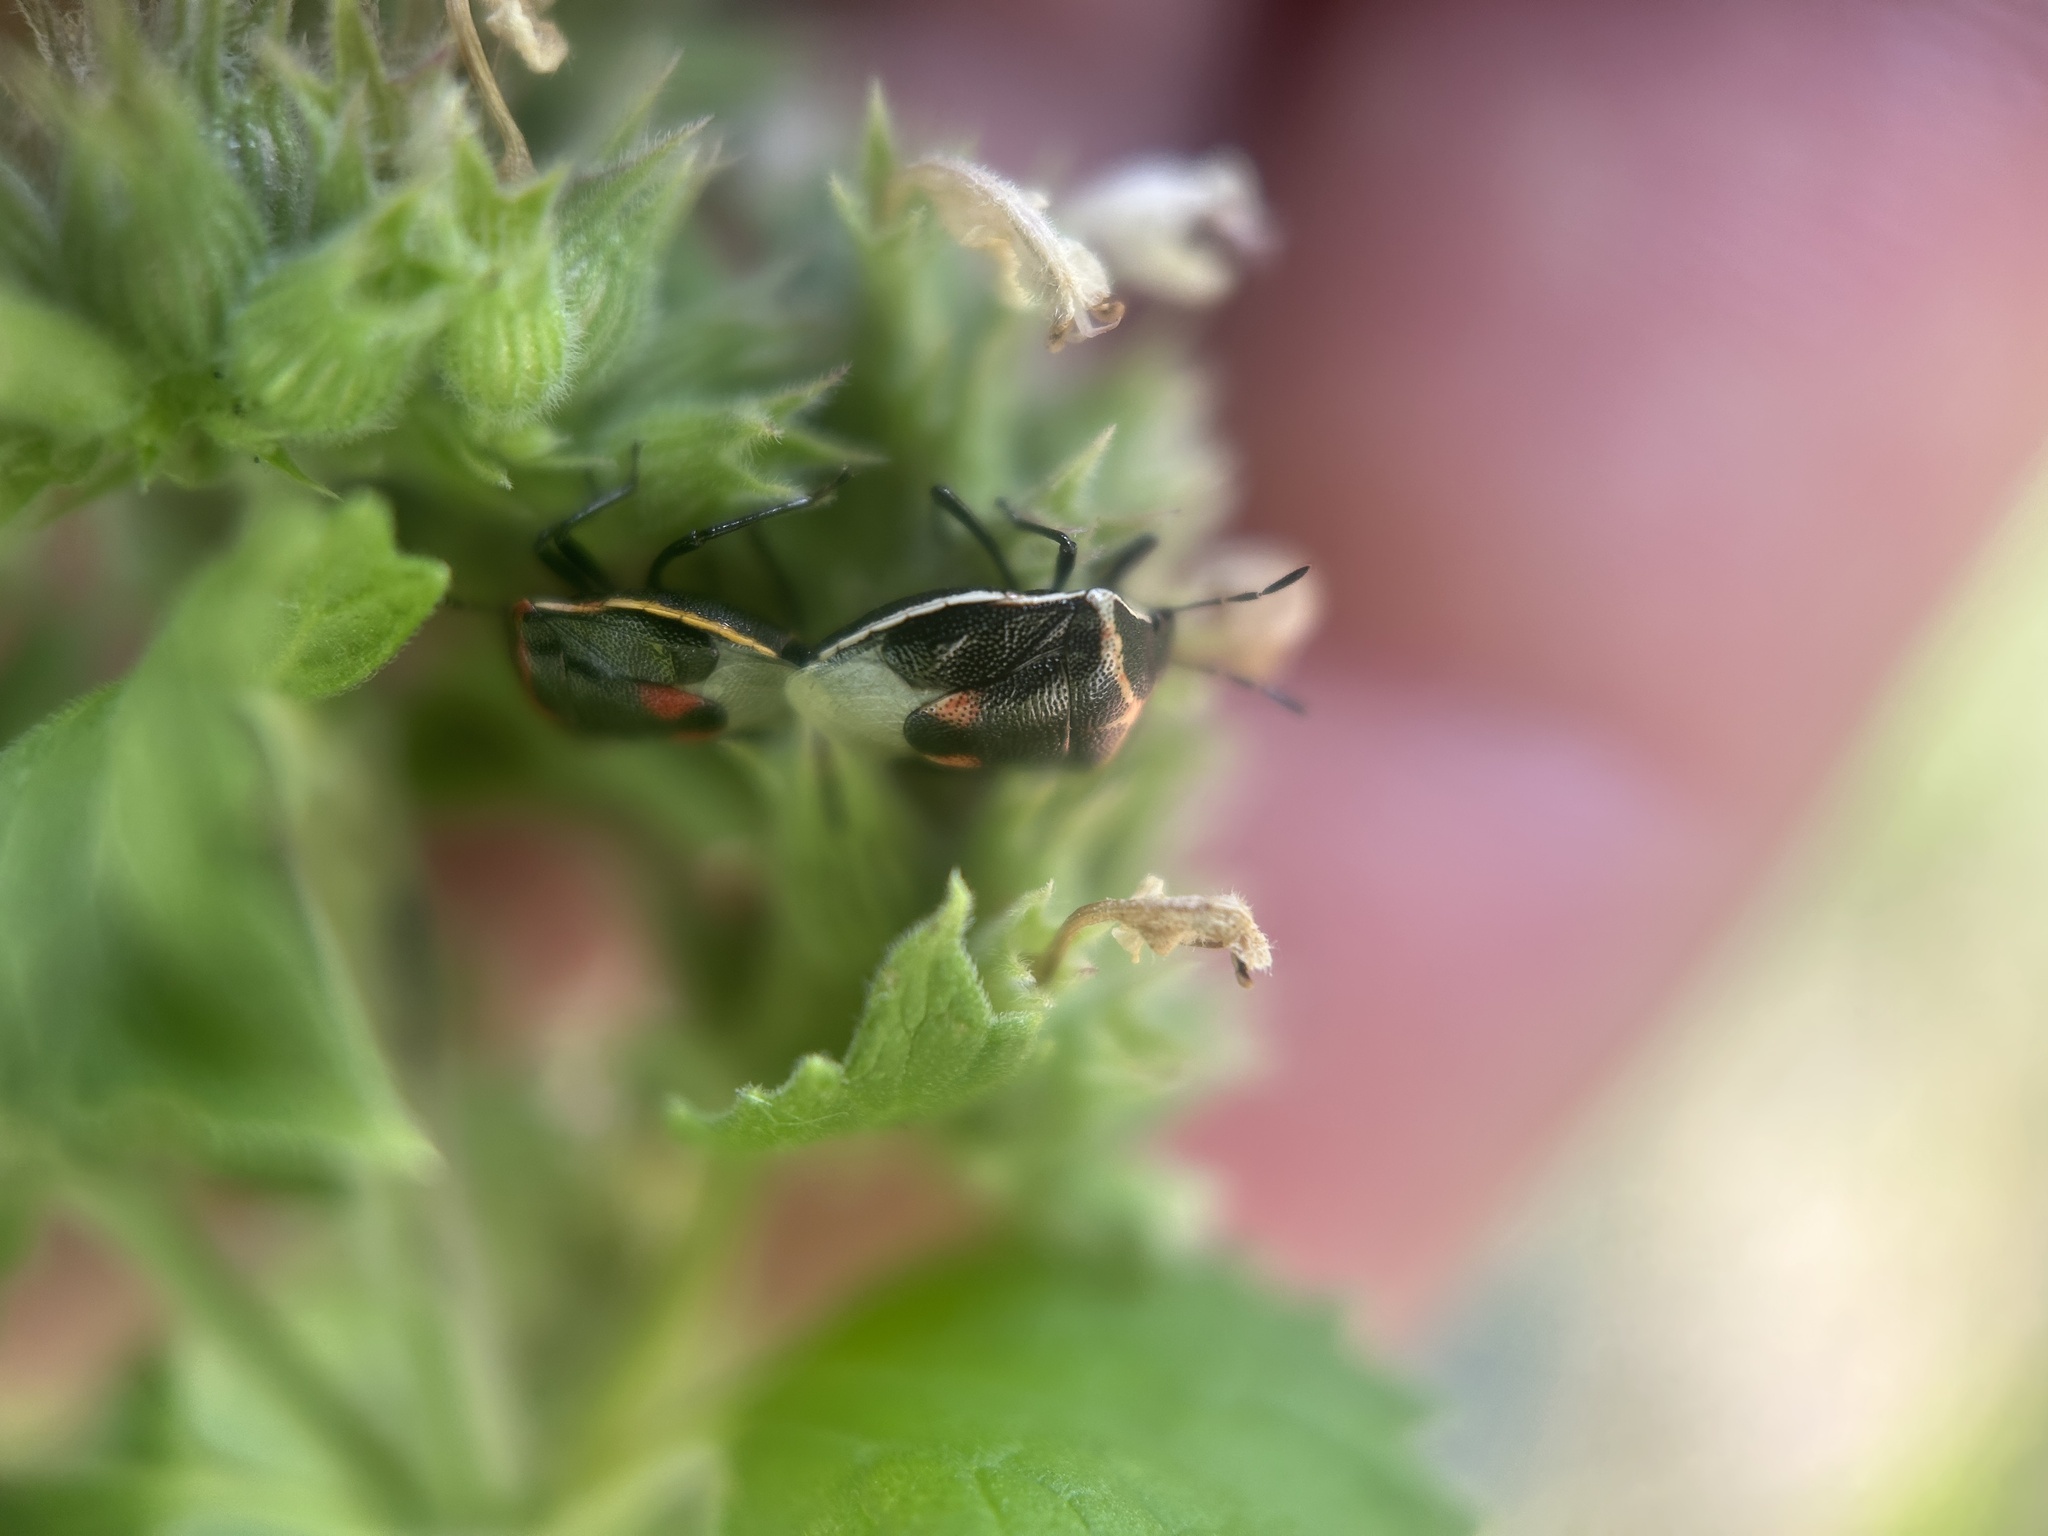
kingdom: Animalia
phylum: Arthropoda
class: Insecta
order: Hemiptera
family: Pentatomidae
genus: Cosmopepla
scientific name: Cosmopepla lintneriana
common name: Twice-stabbed stink bug
